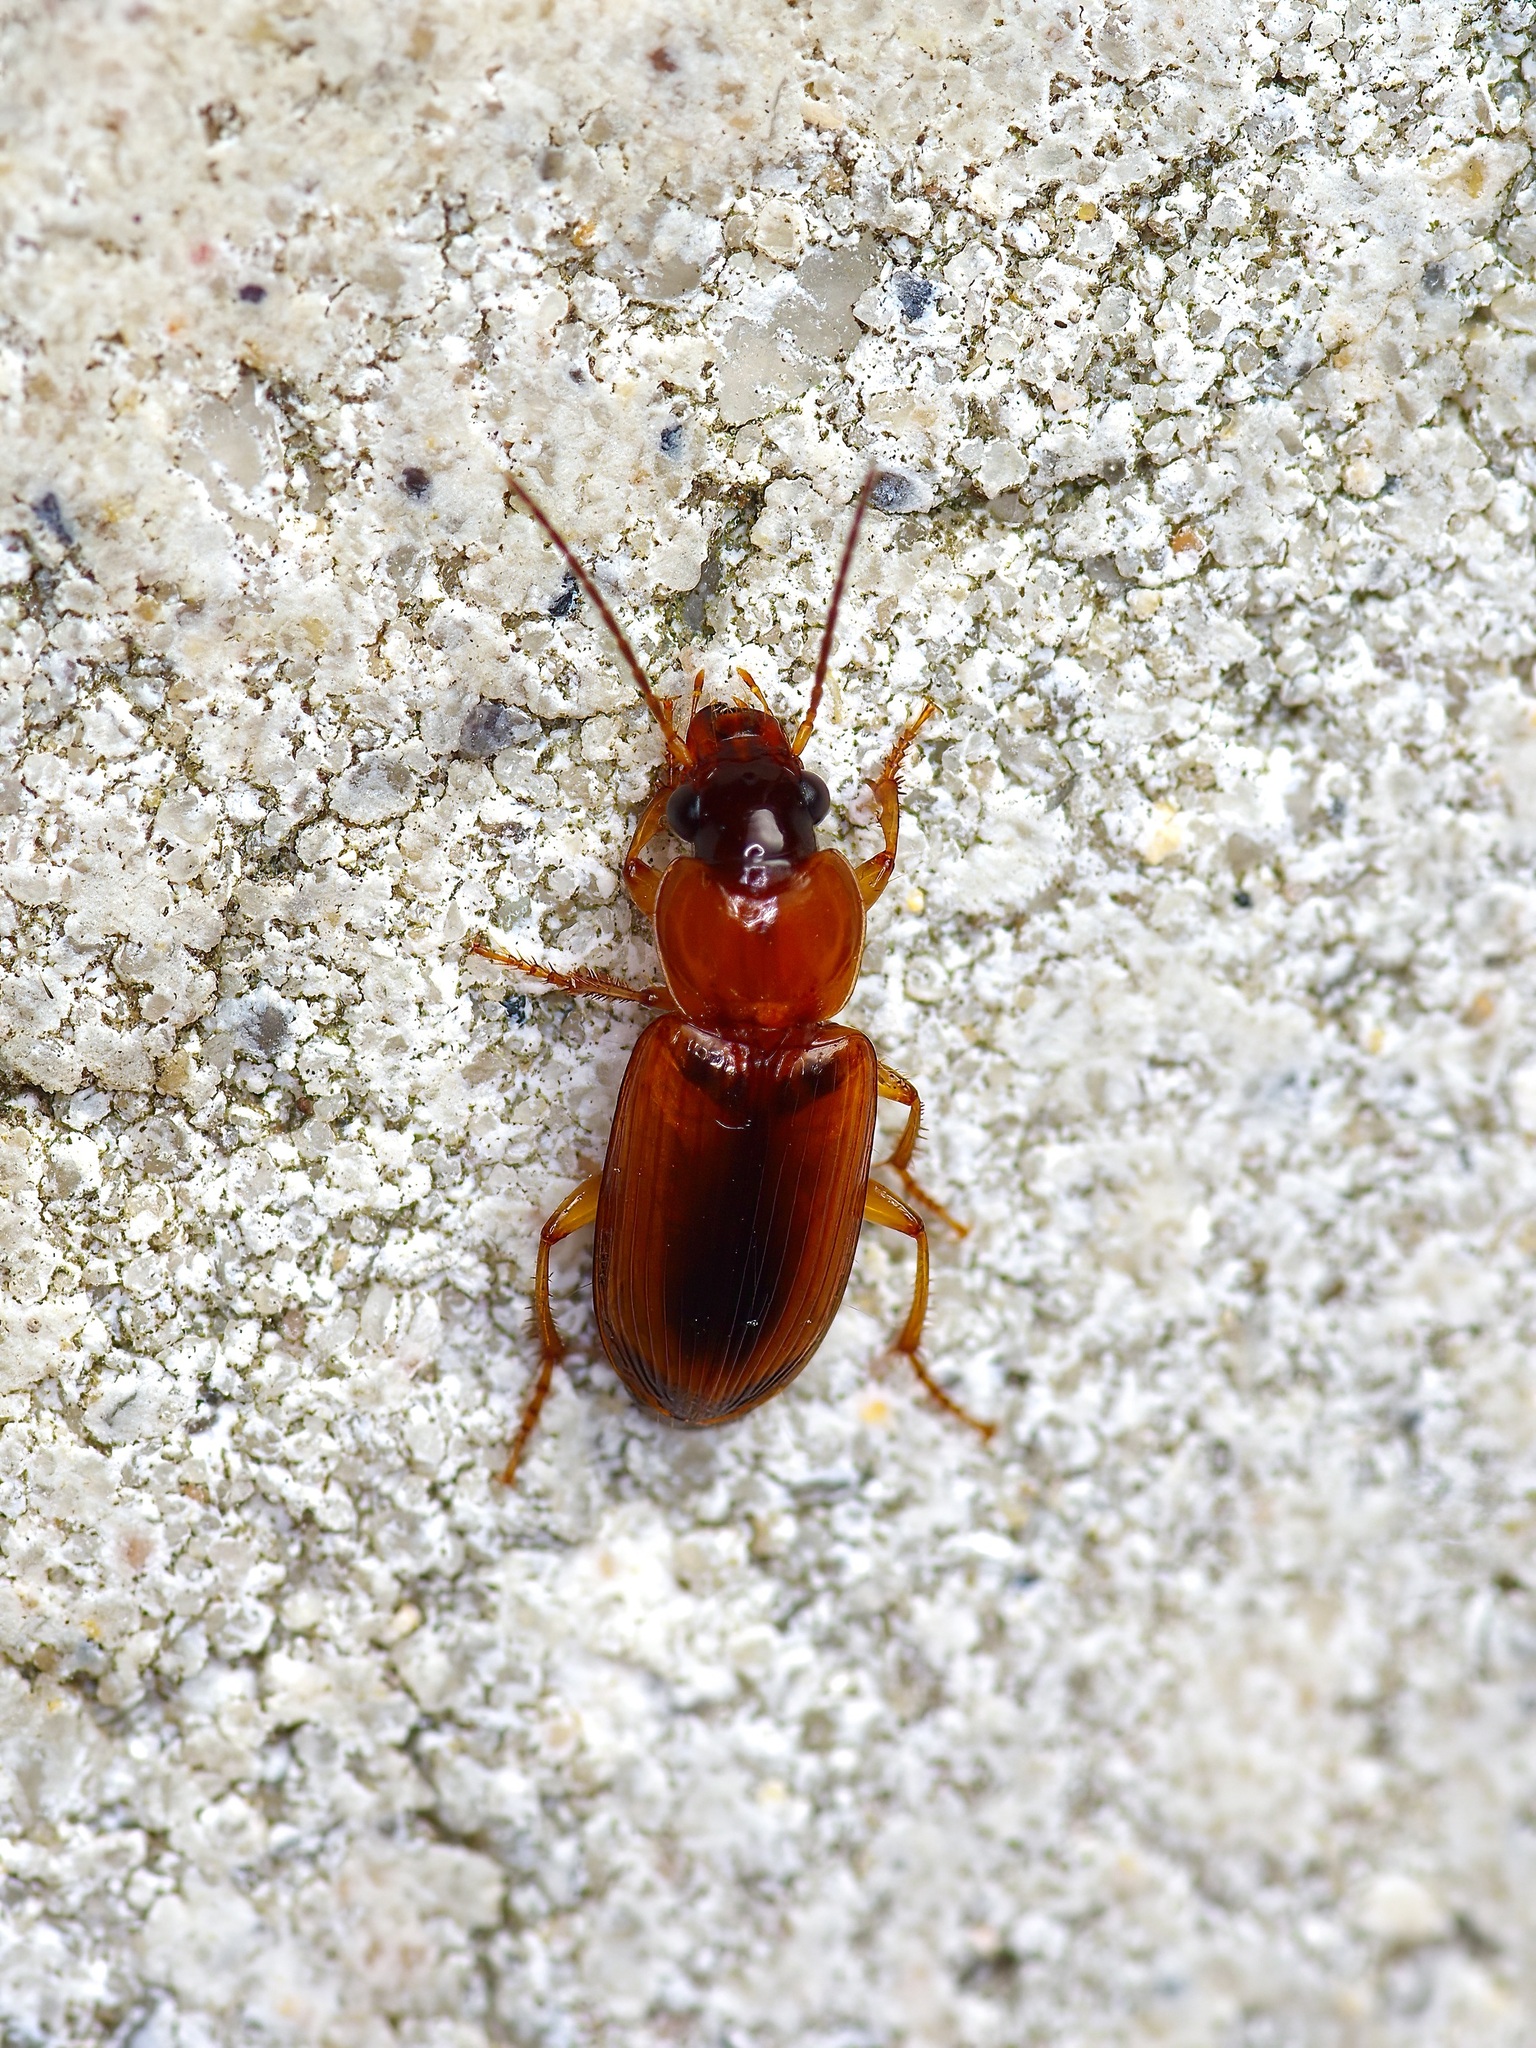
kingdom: Animalia
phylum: Arthropoda
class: Insecta
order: Coleoptera
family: Carabidae
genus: Stenolophus
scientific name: Stenolophus dissimilis
